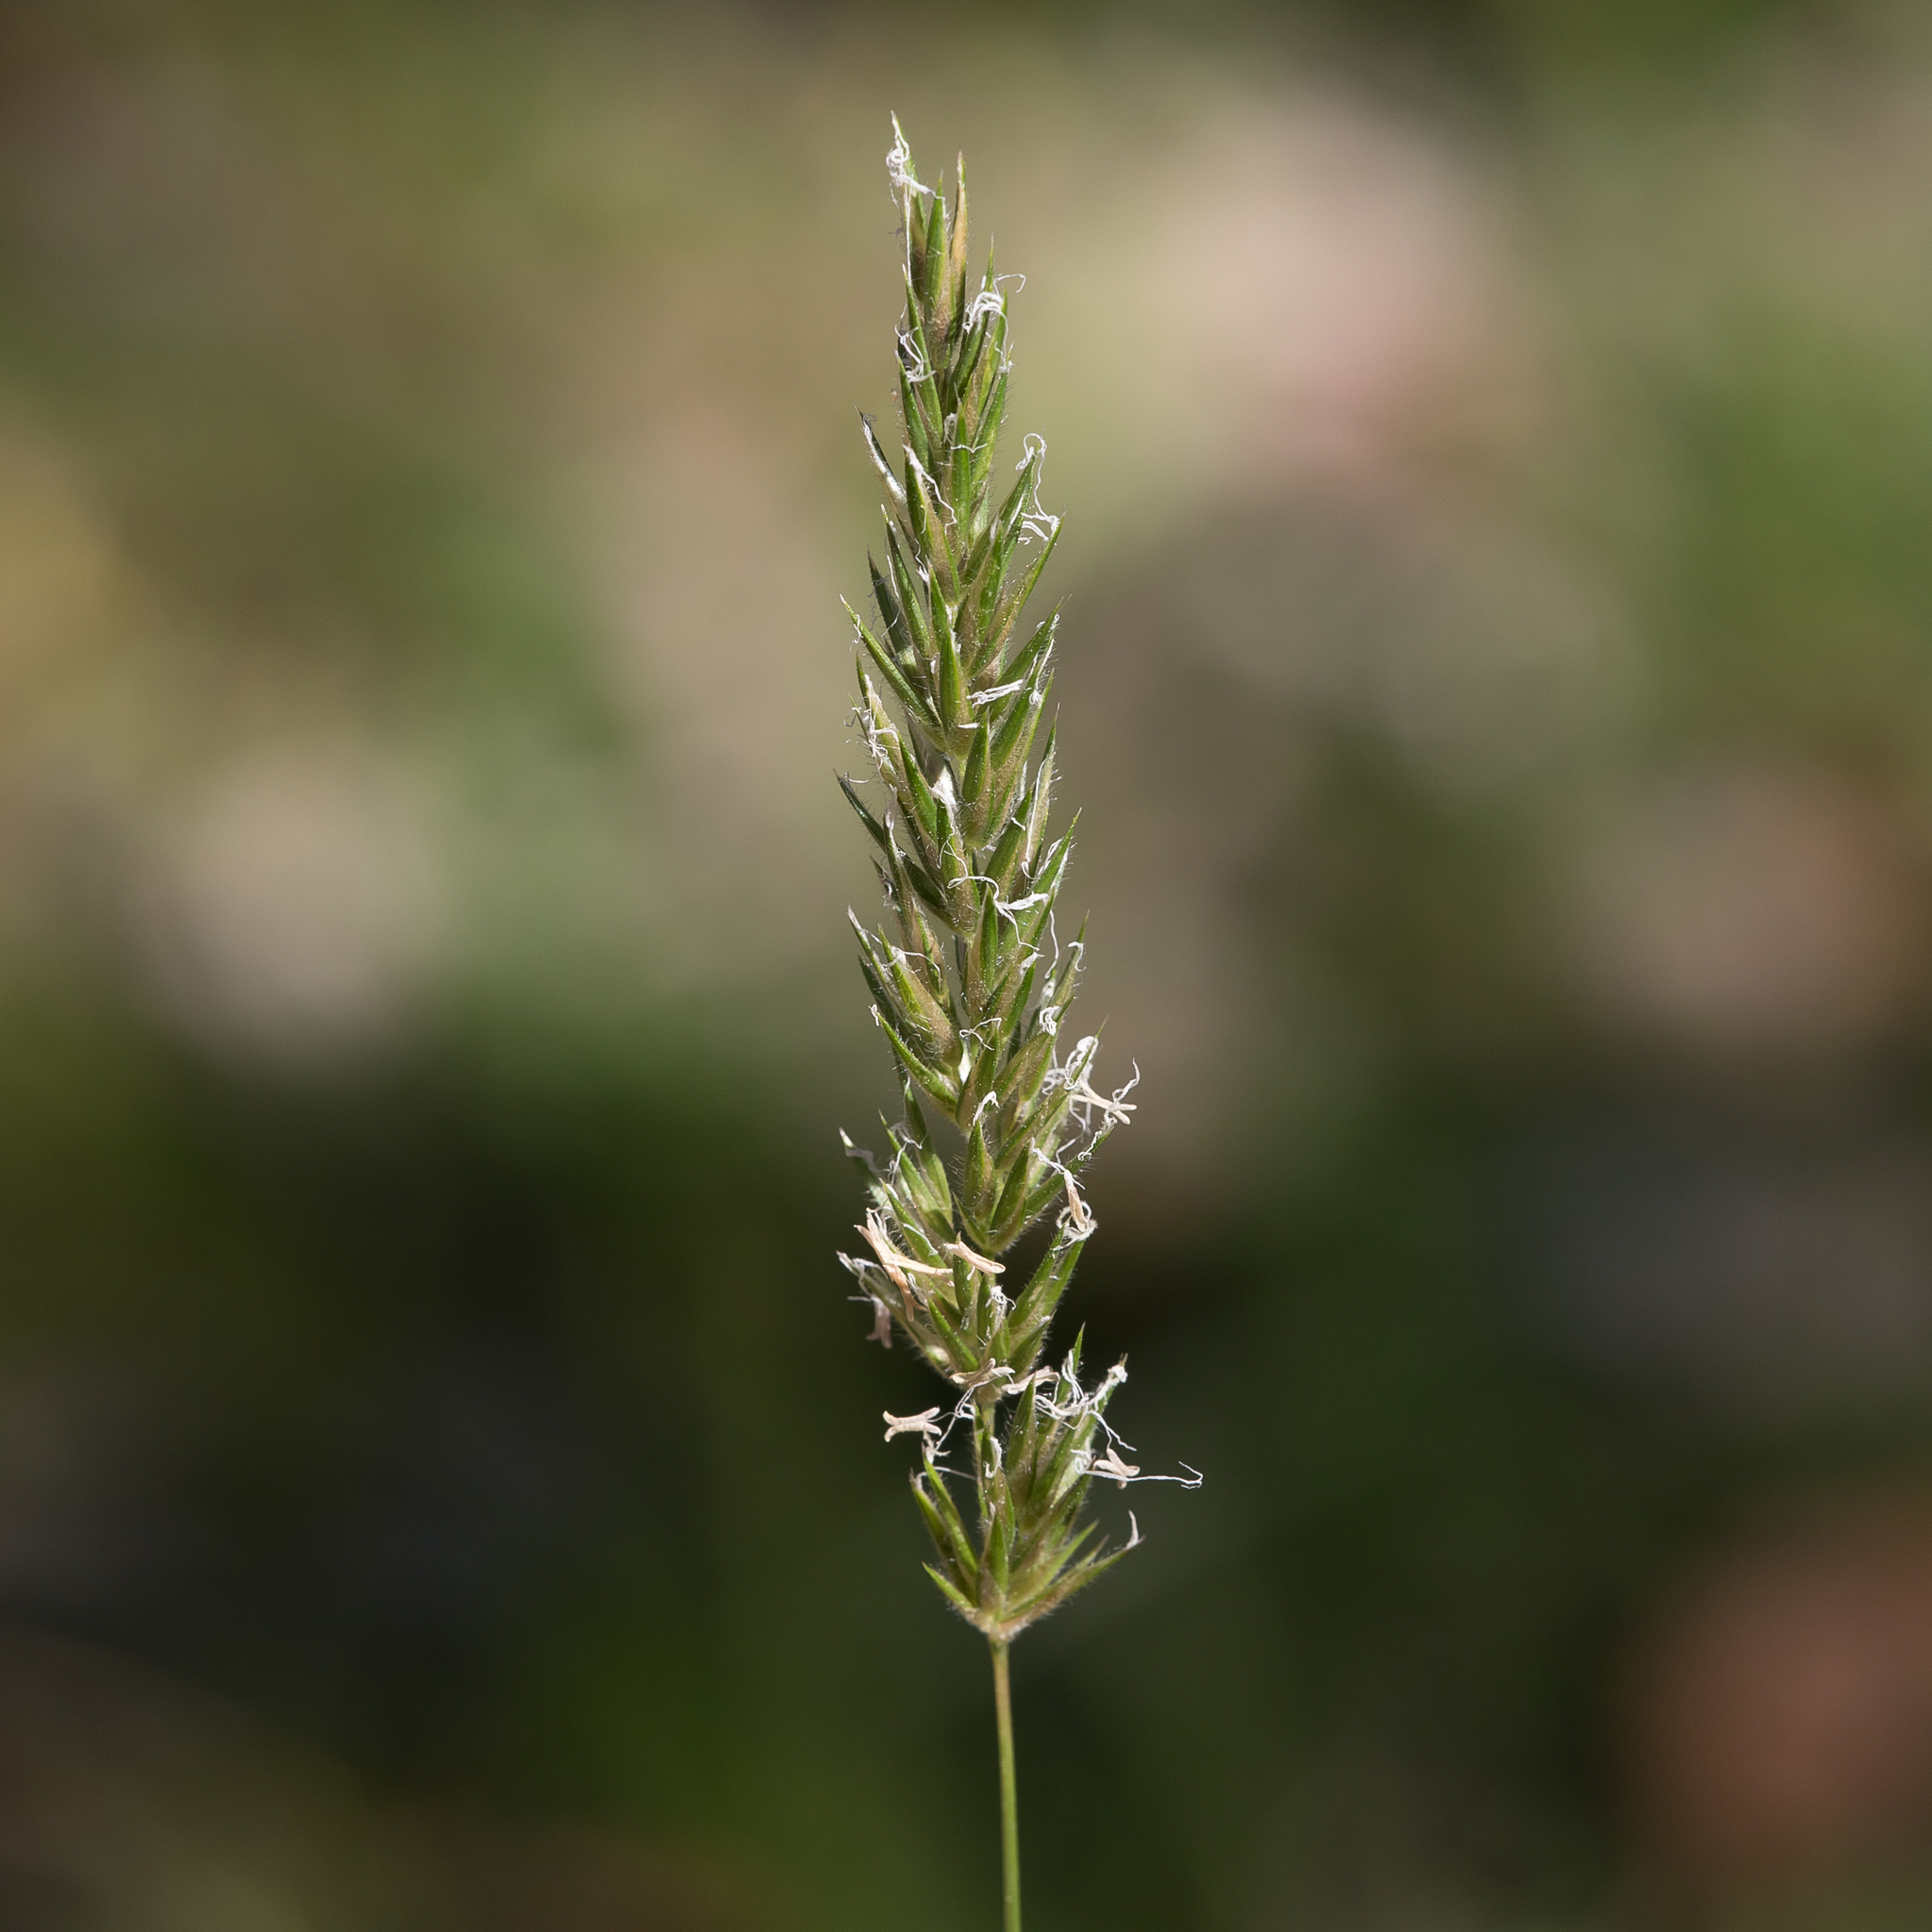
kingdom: Plantae
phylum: Tracheophyta
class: Liliopsida
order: Poales
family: Poaceae
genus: Anthoxanthum
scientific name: Anthoxanthum odoratum
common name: Sweet vernalgrass
